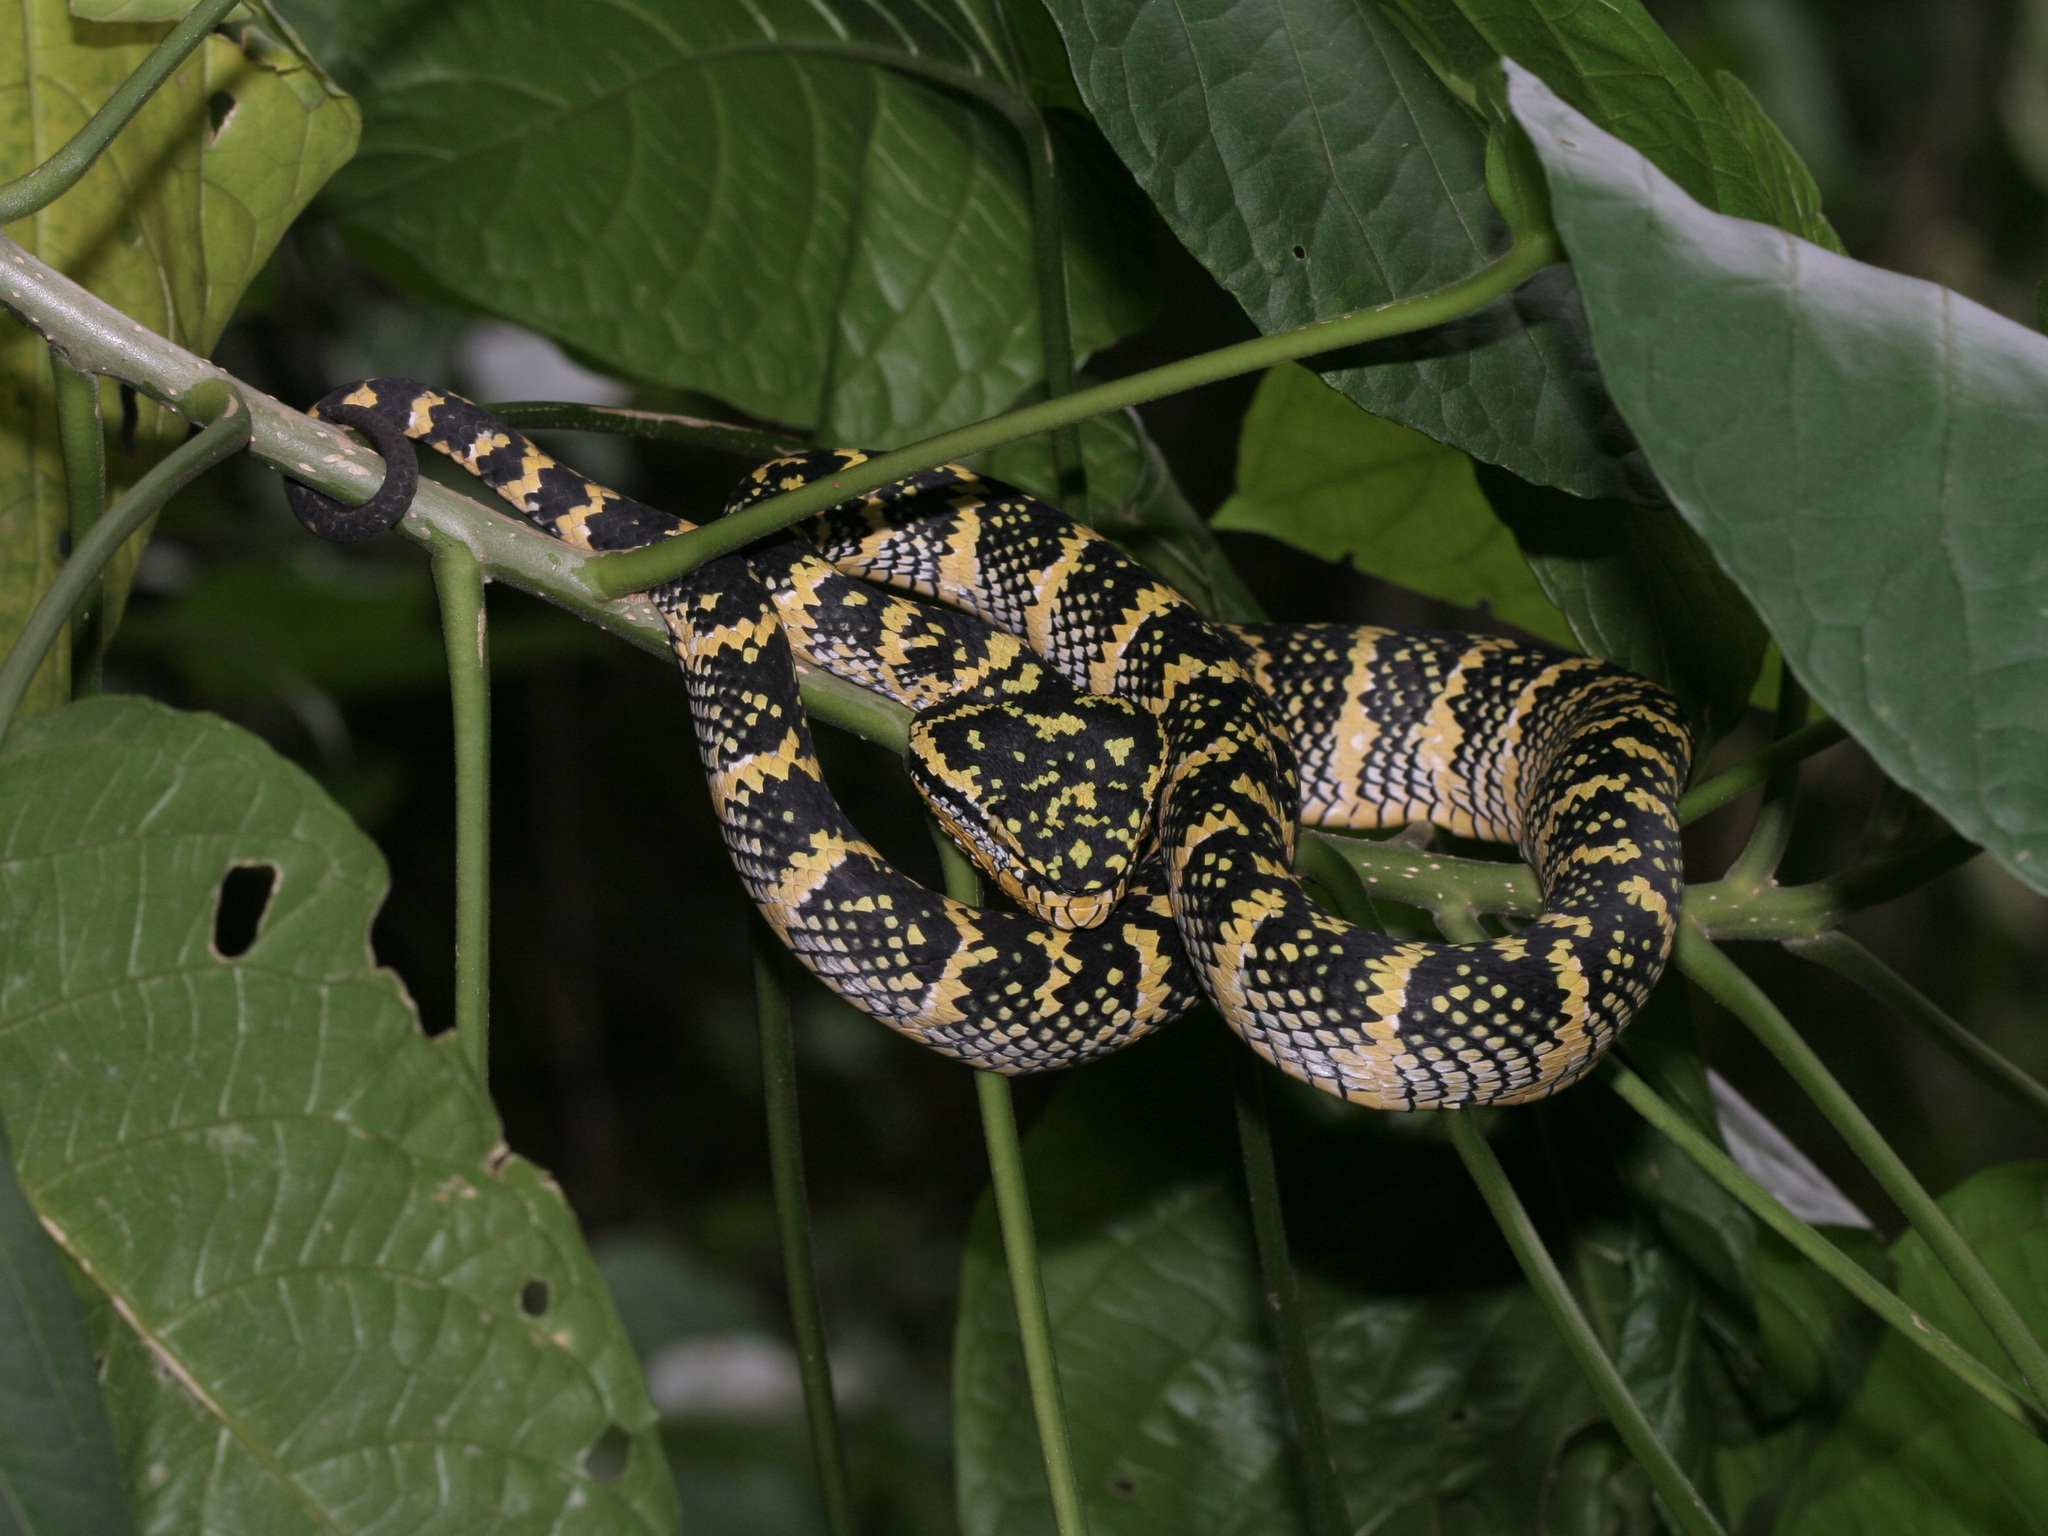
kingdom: Animalia
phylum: Chordata
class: Squamata
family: Viperidae
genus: Tropidolaemus
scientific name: Tropidolaemus wagleri
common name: Wagler's palm viper
